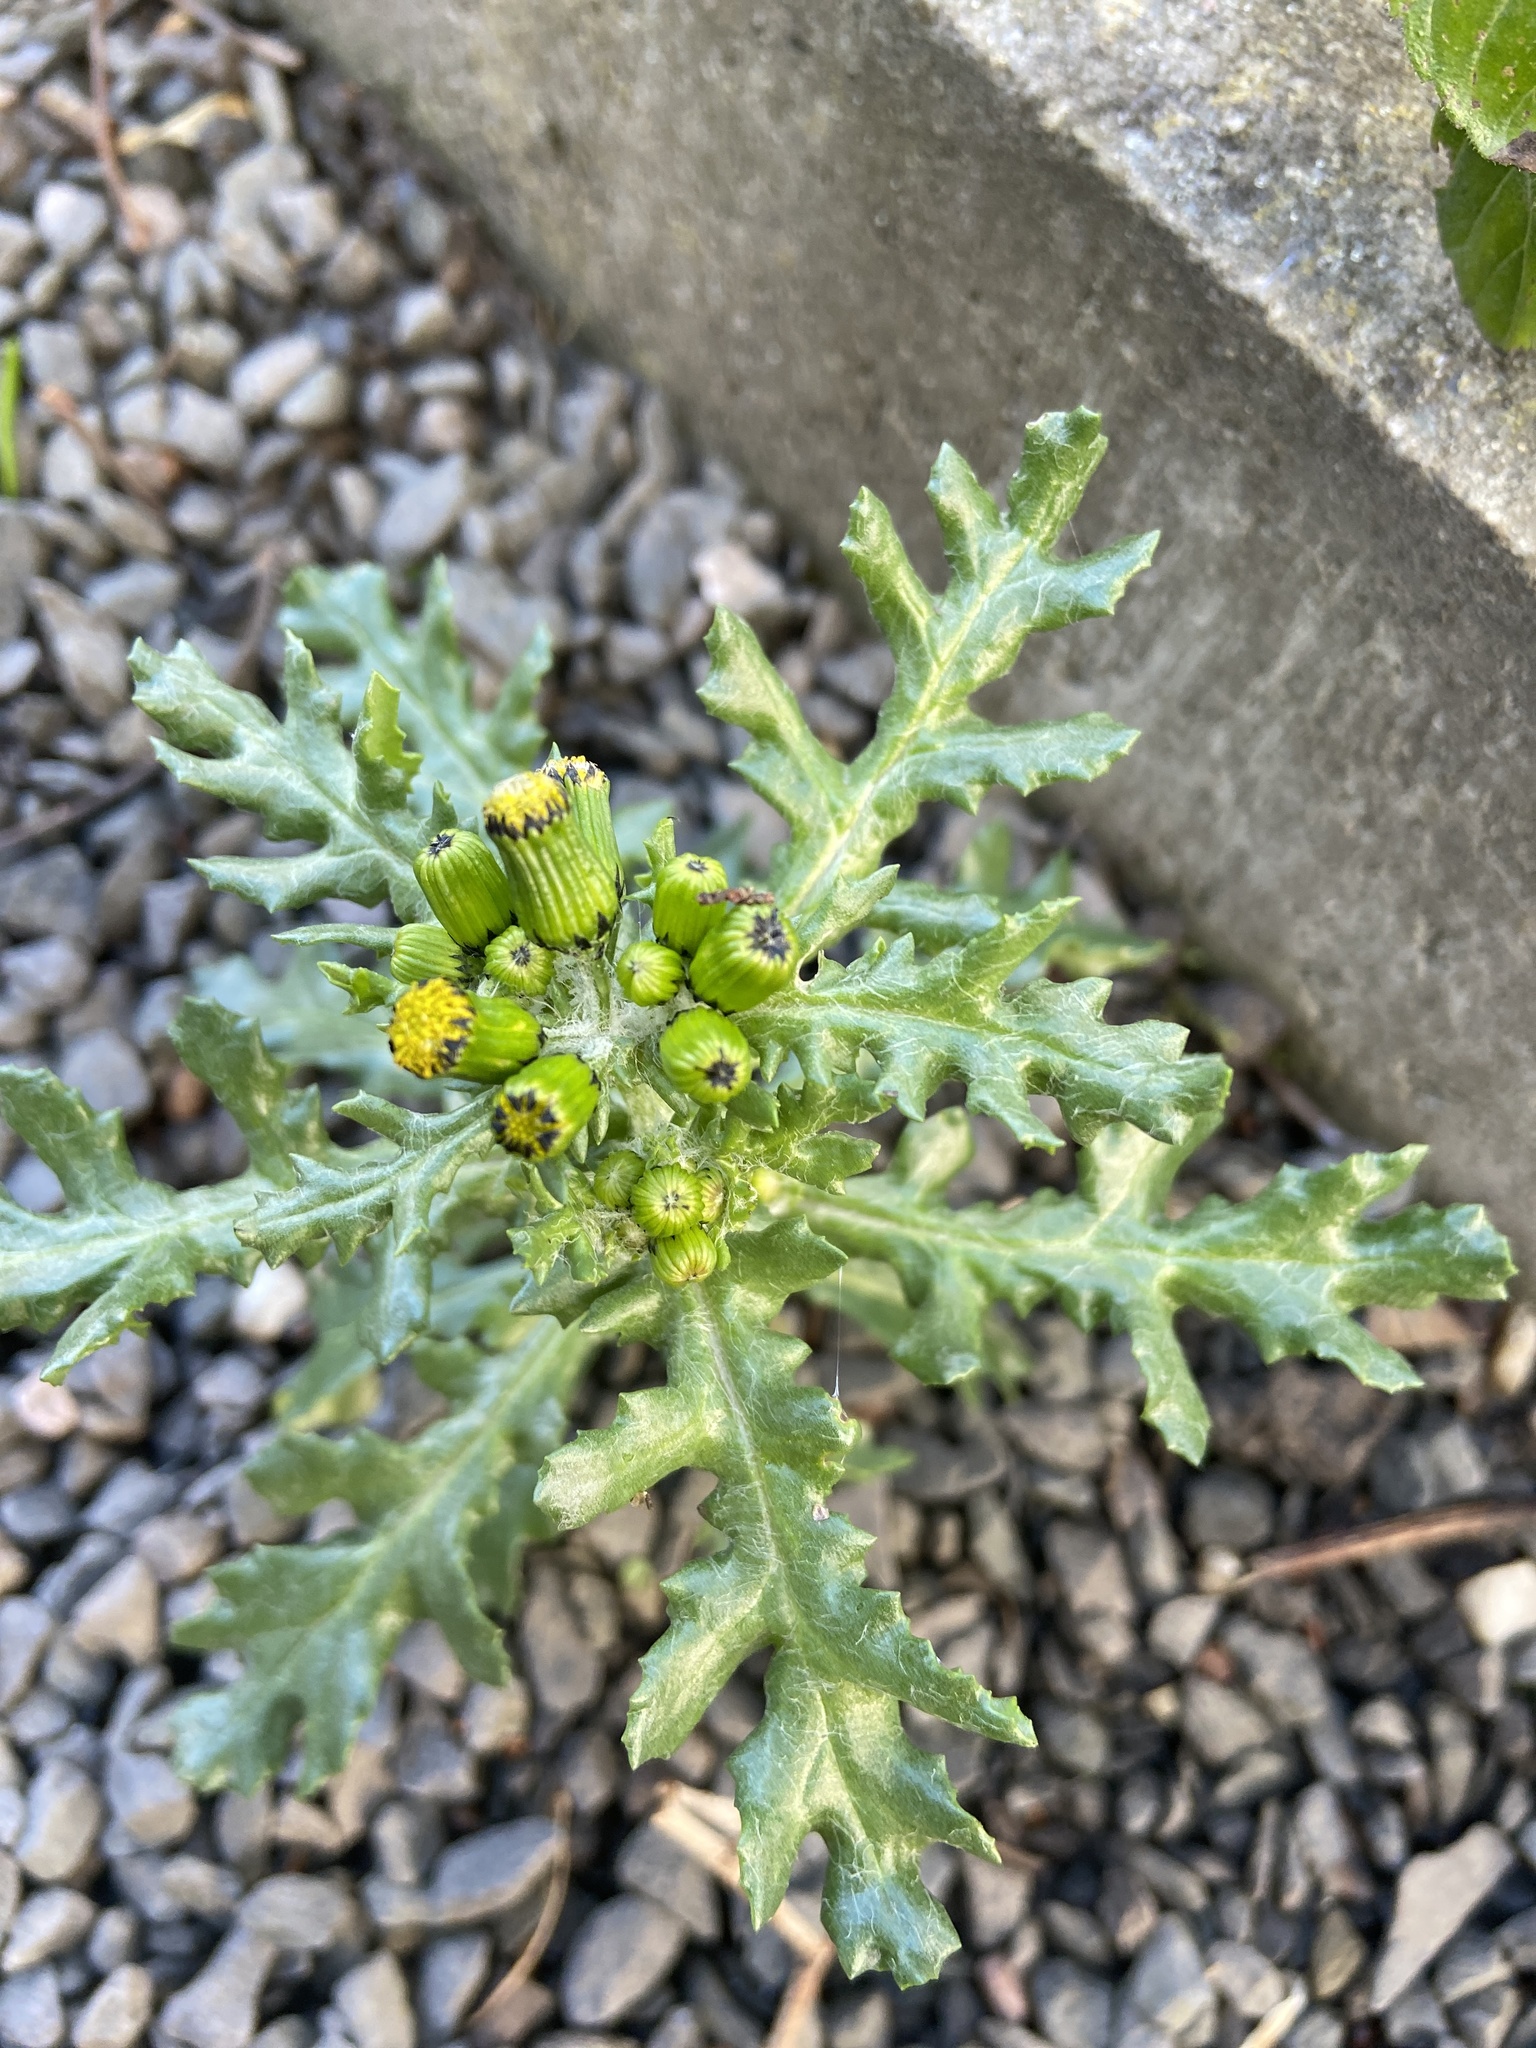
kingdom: Plantae
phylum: Tracheophyta
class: Magnoliopsida
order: Asterales
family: Asteraceae
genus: Senecio
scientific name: Senecio vulgaris
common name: Old-man-in-the-spring
